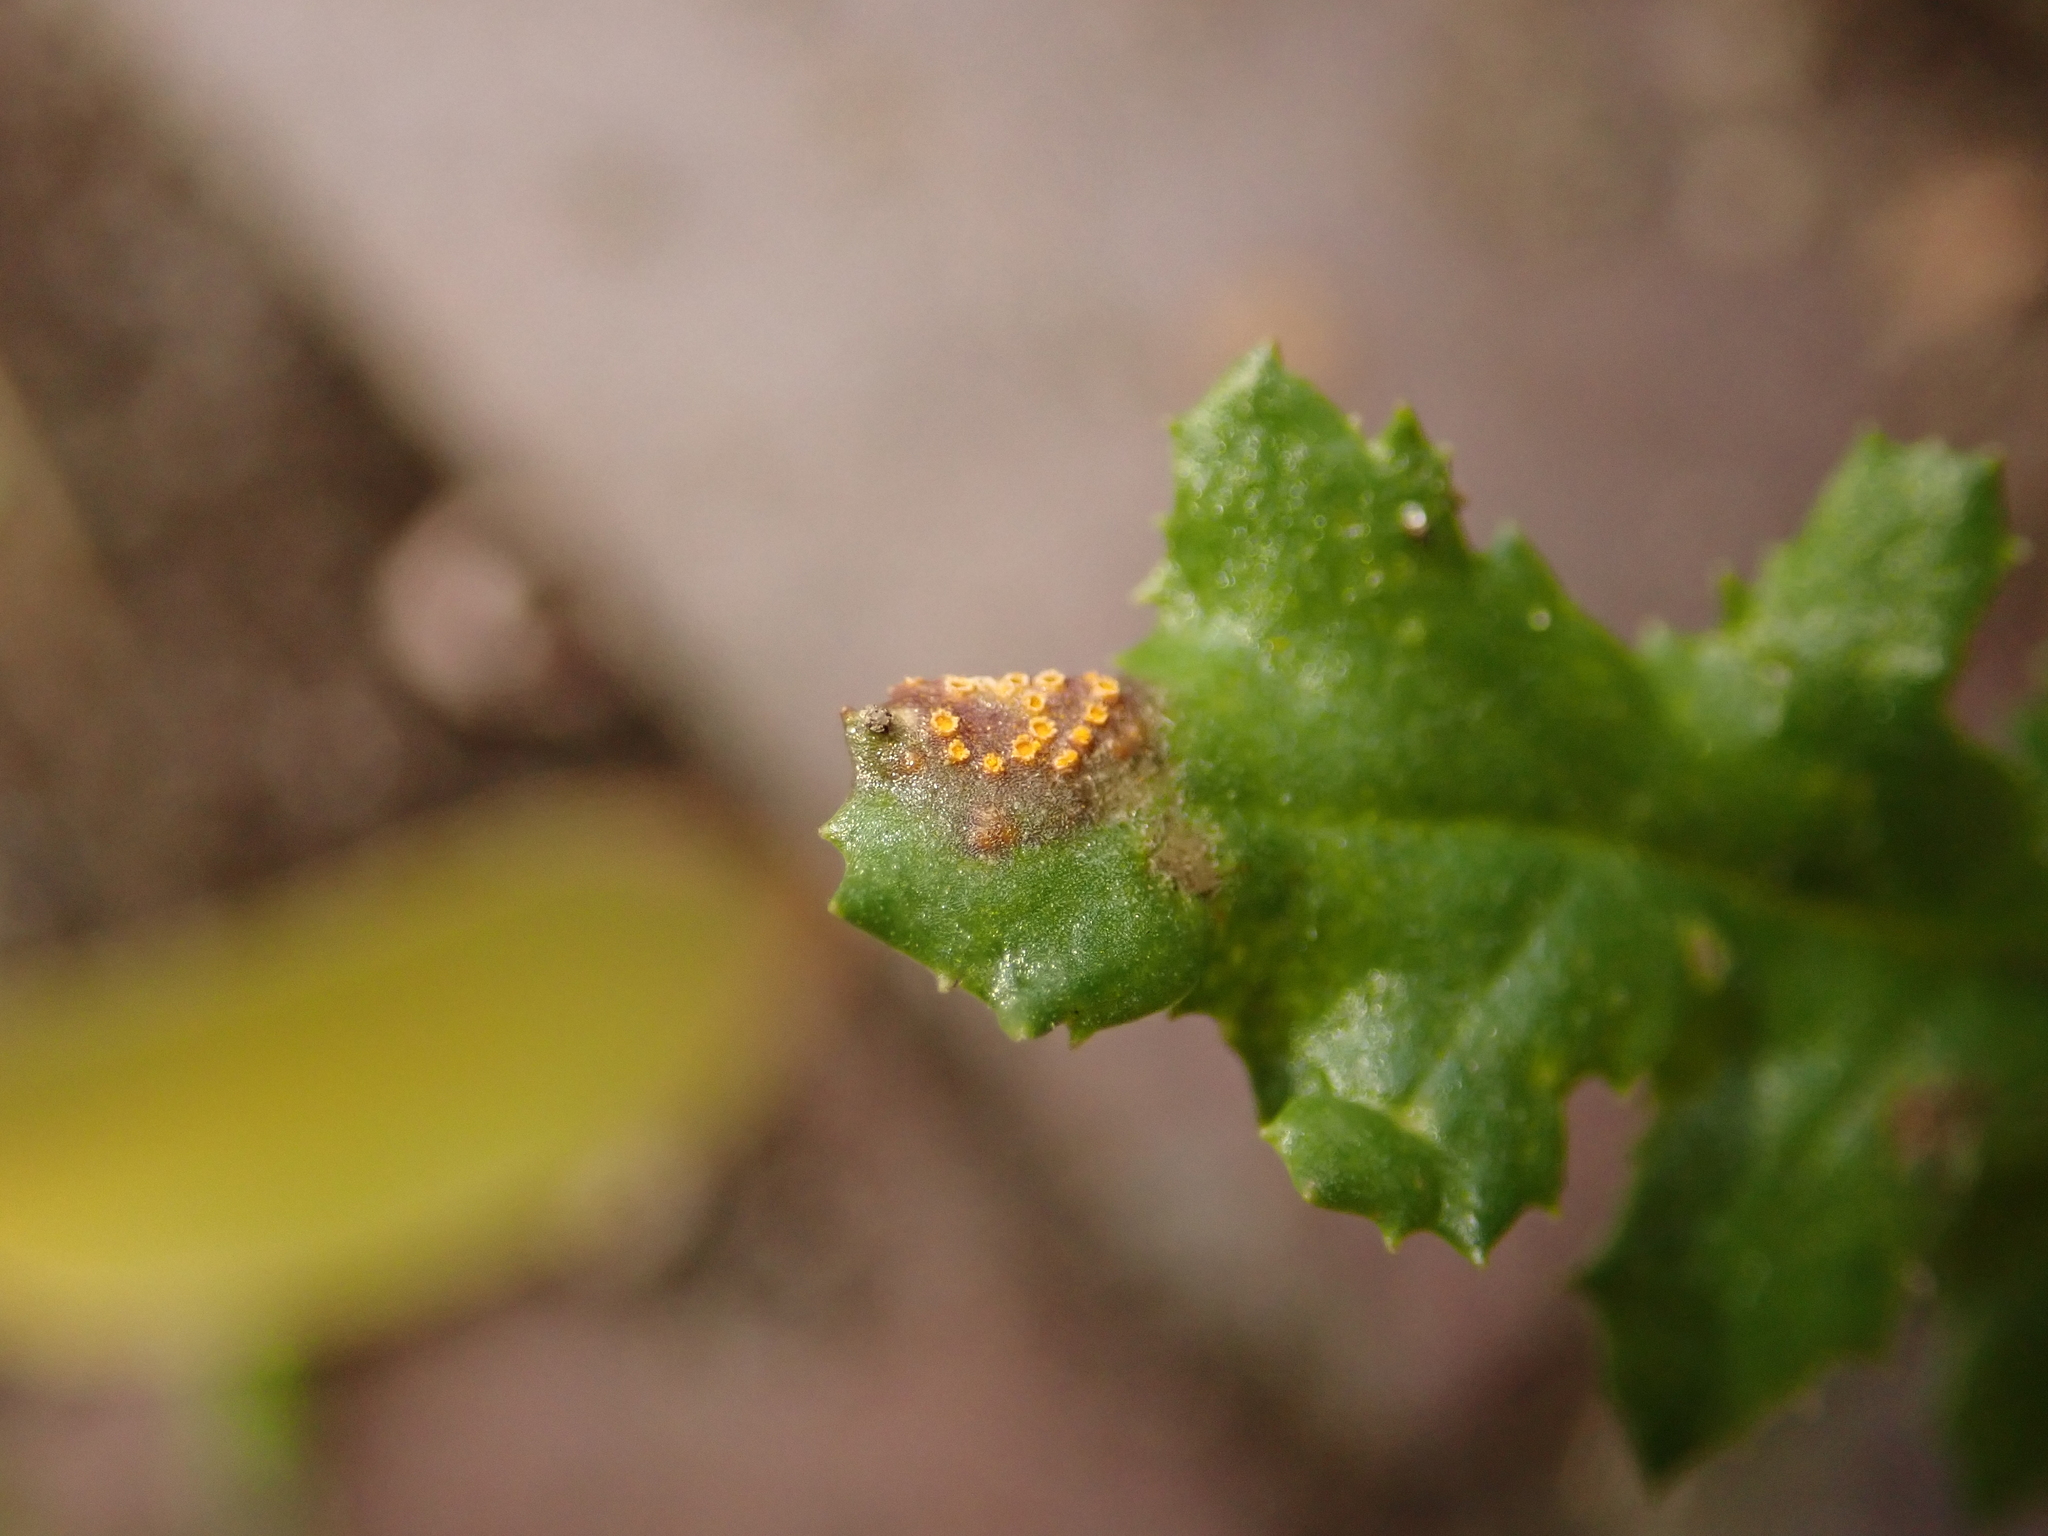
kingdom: Fungi
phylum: Basidiomycota
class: Pucciniomycetes
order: Pucciniales
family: Pucciniaceae
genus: Puccinia
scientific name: Puccinia lagenophorae
